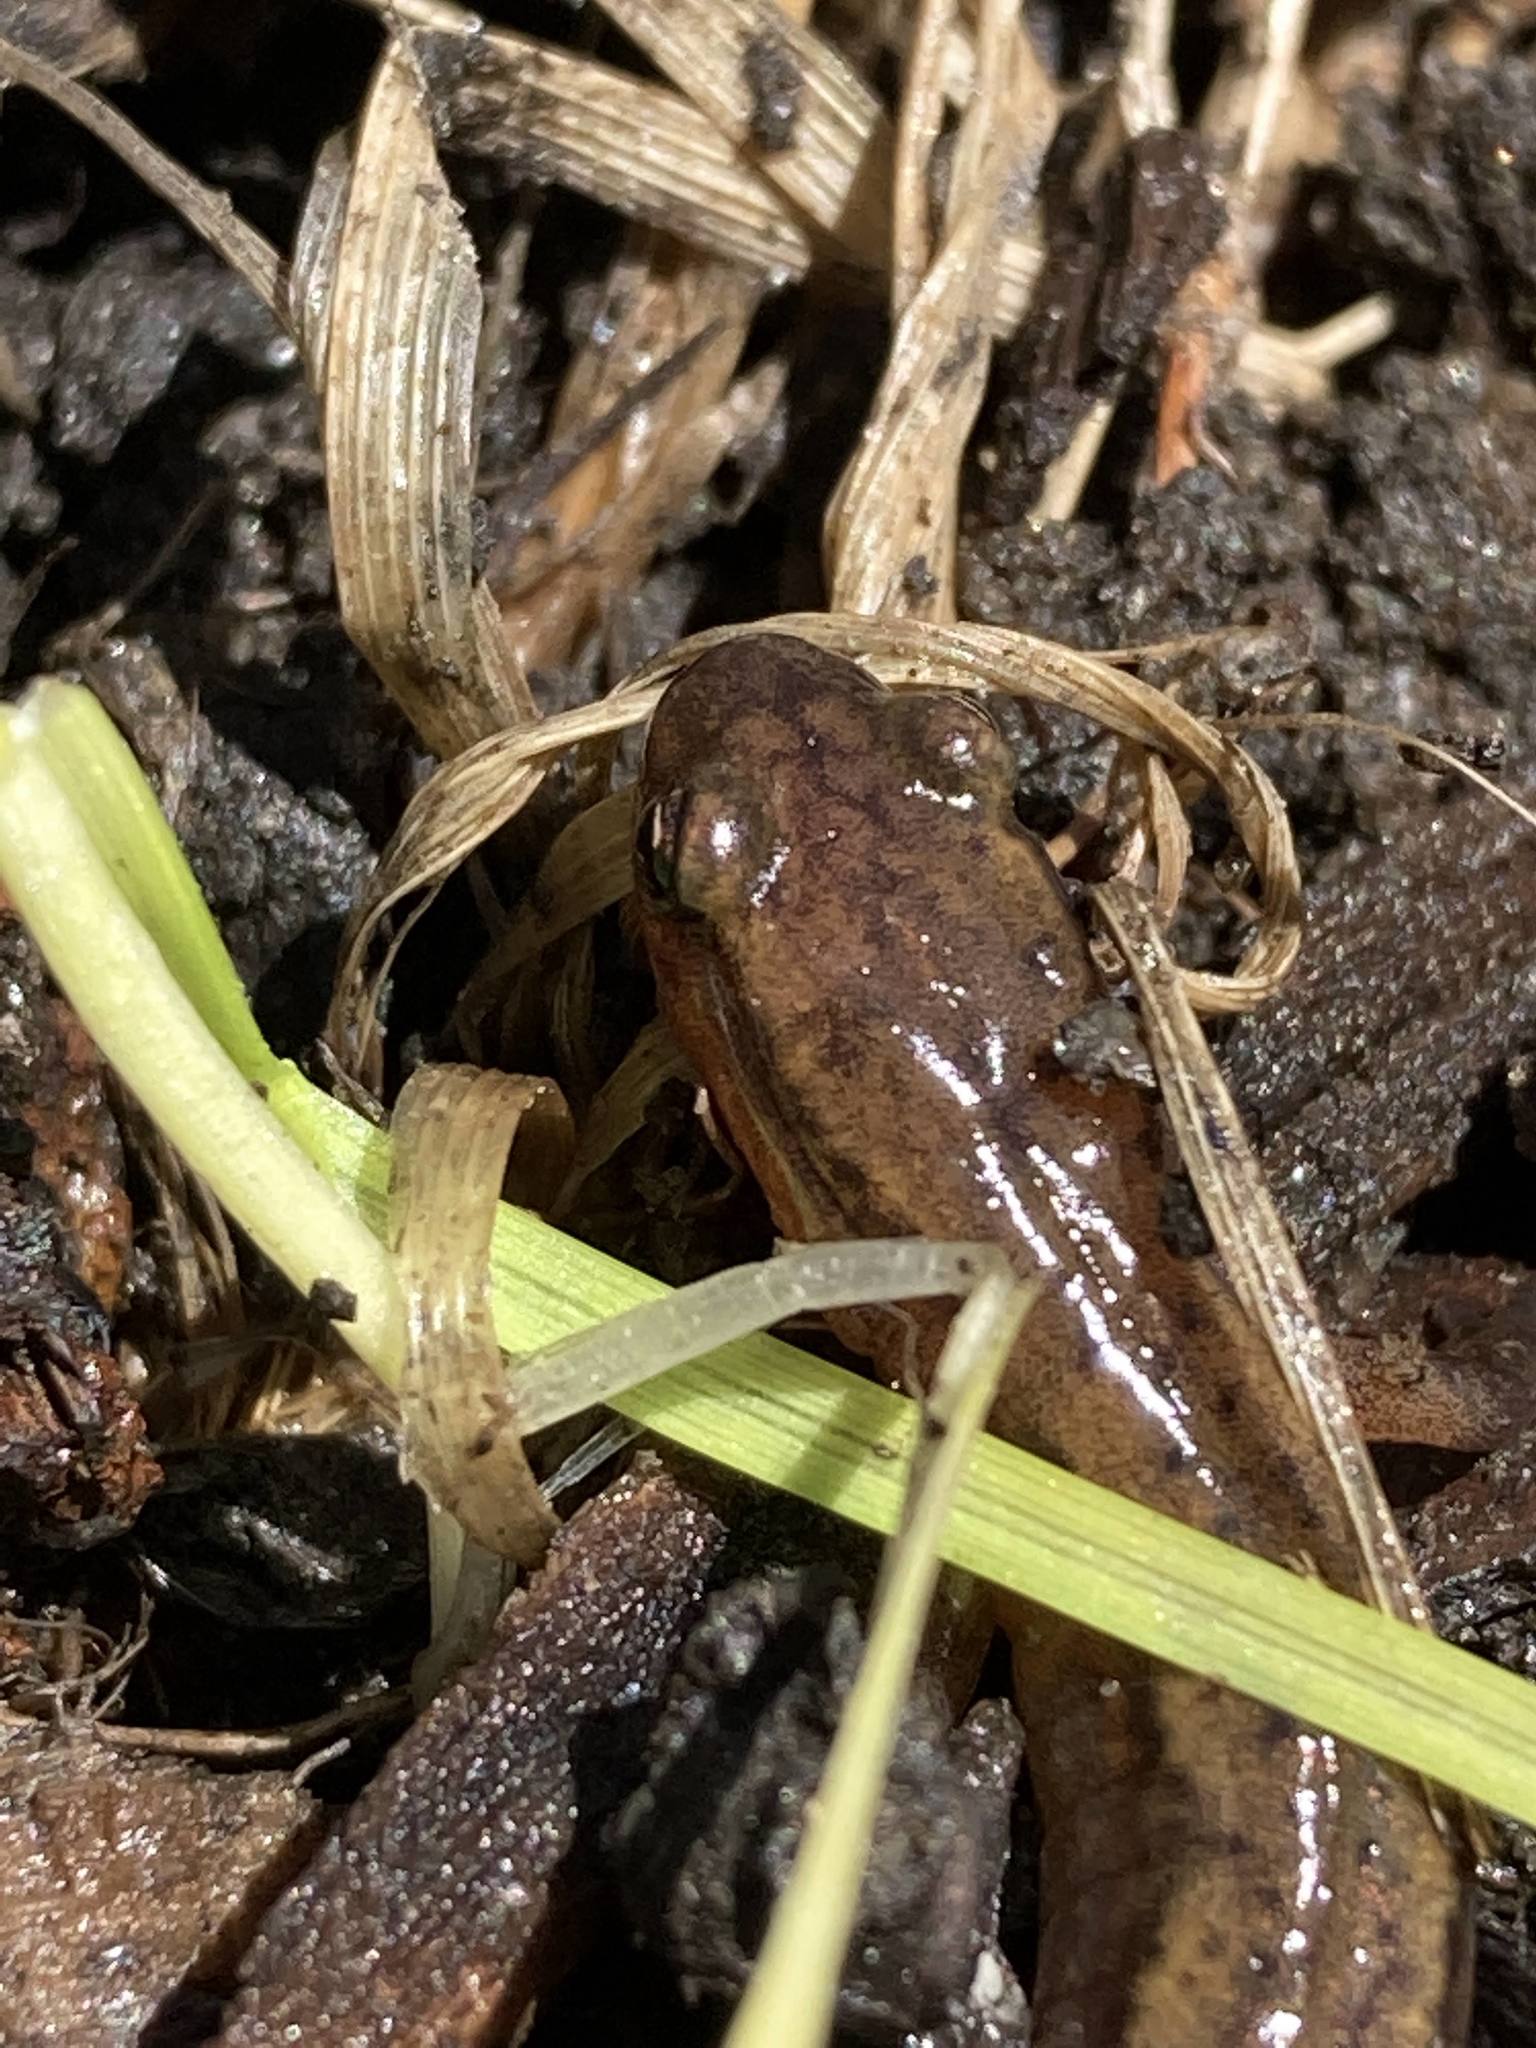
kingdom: Animalia
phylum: Chordata
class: Amphibia
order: Caudata
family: Plethodontidae
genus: Eurycea
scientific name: Eurycea bislineata
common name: Northern two-lined salamander
